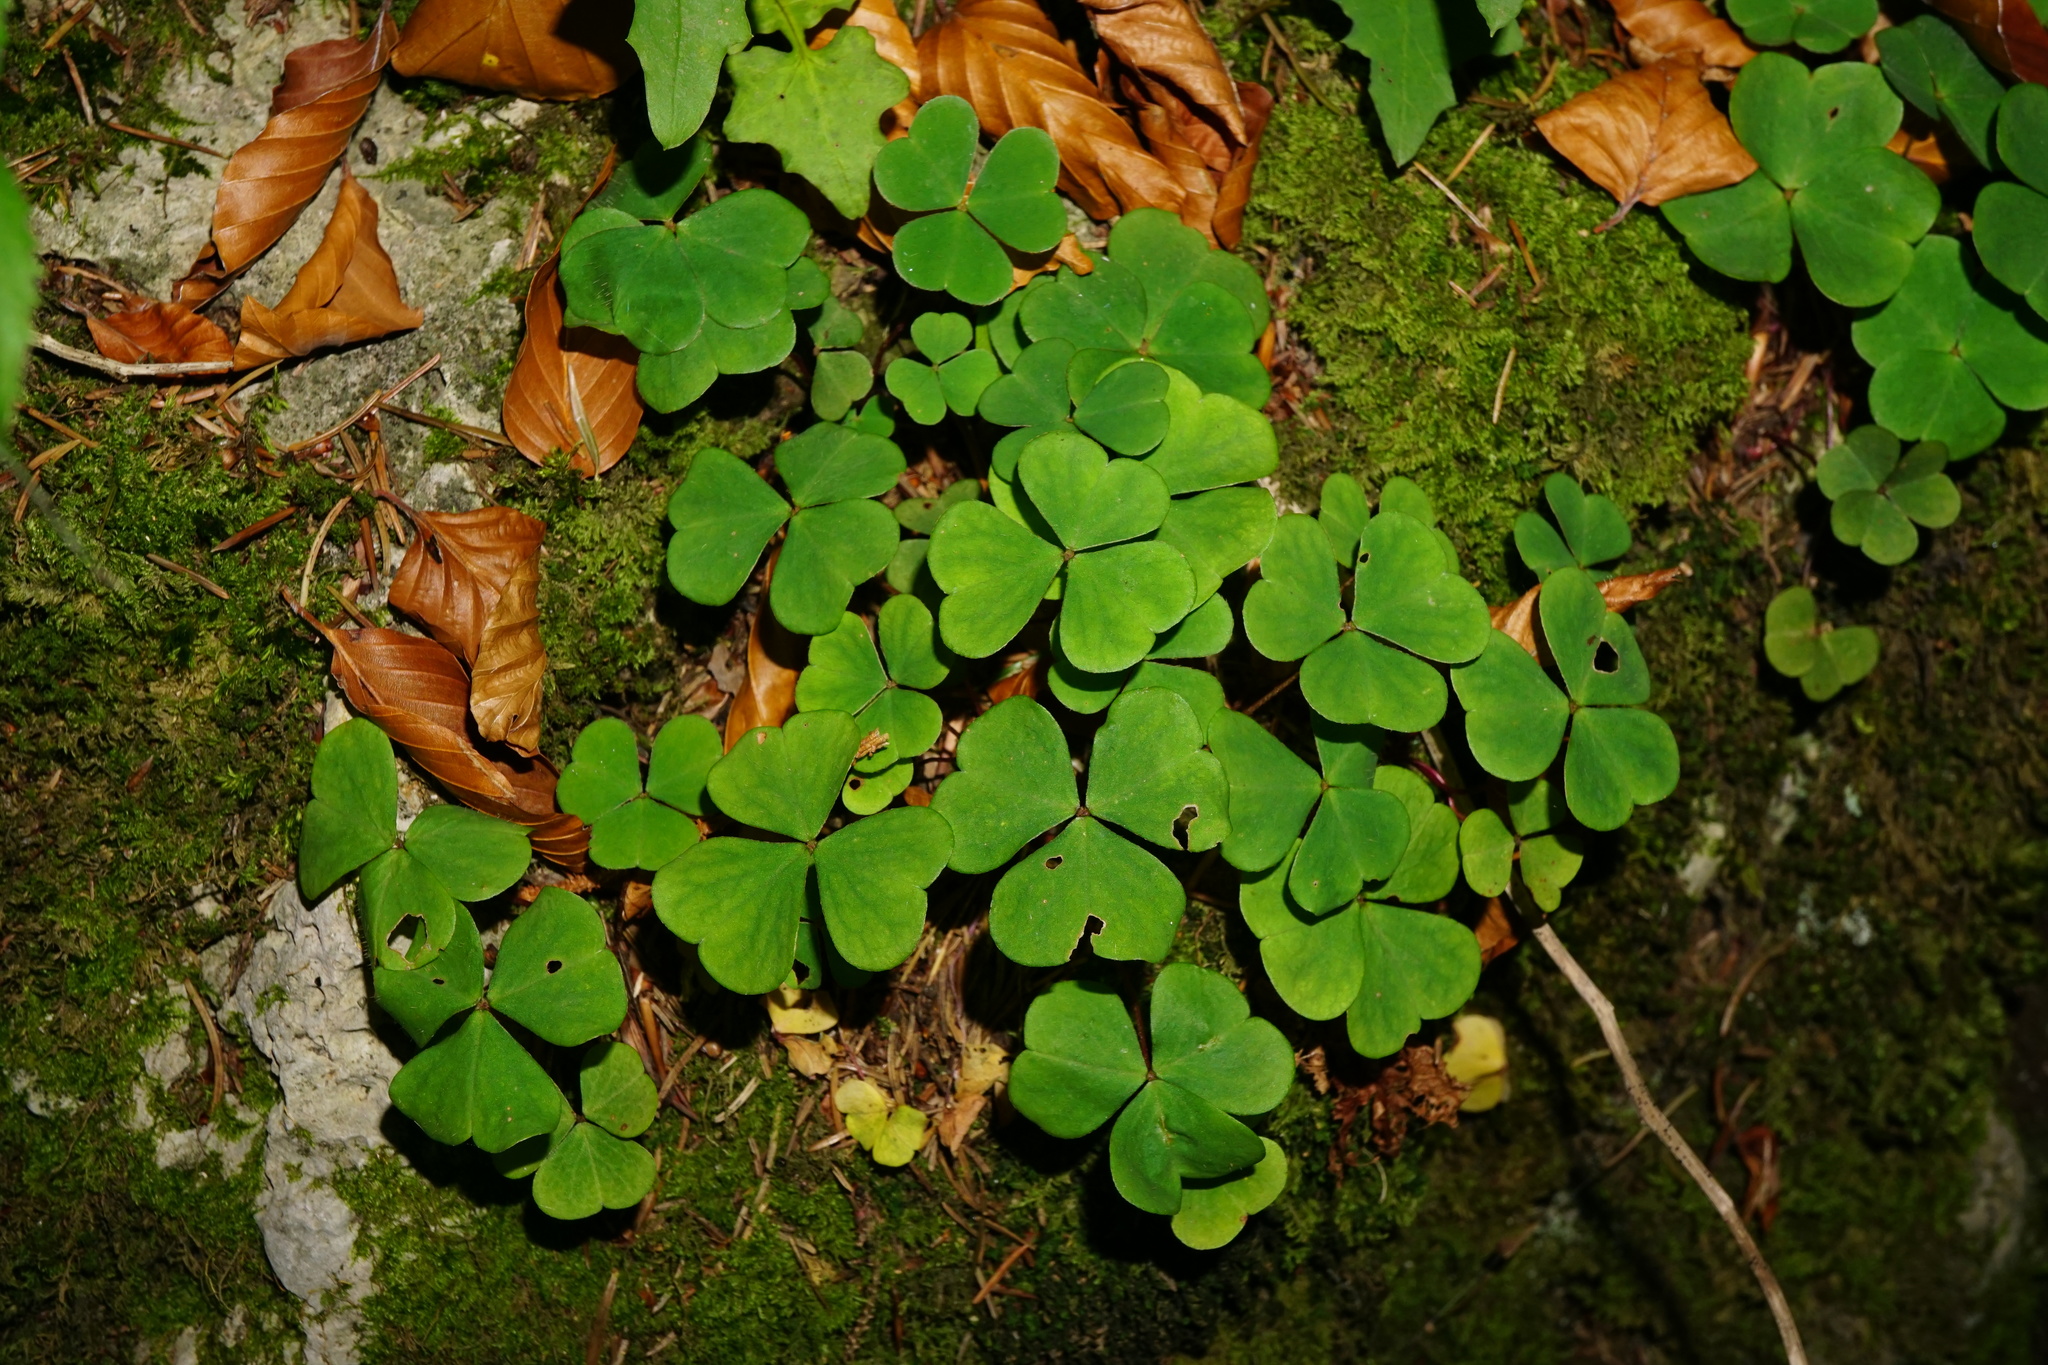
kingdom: Plantae
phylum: Tracheophyta
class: Magnoliopsida
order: Oxalidales
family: Oxalidaceae
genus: Oxalis
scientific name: Oxalis acetosella
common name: Wood-sorrel
